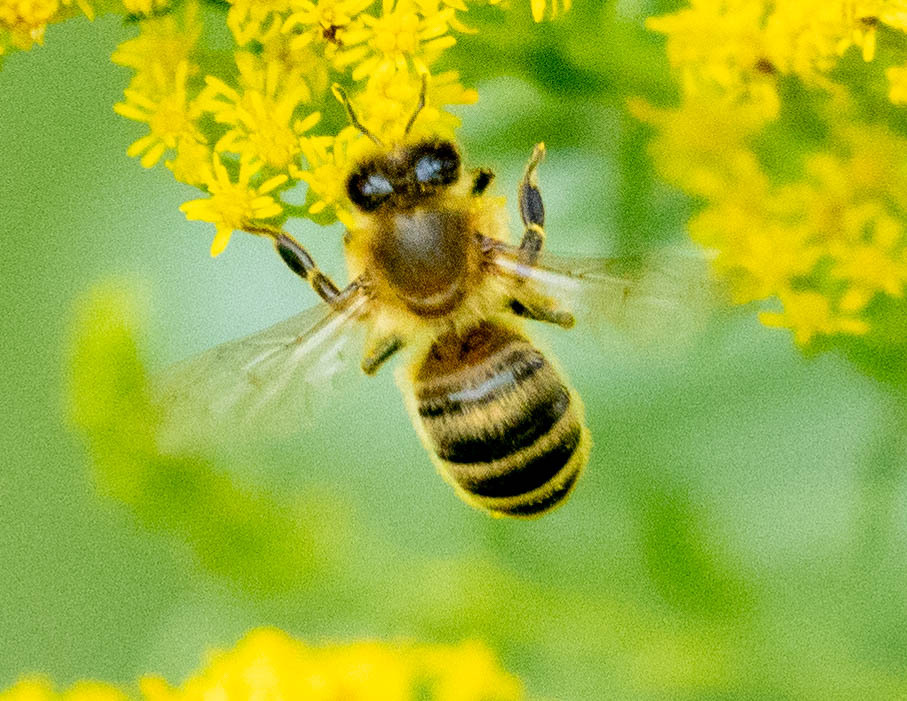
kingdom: Animalia
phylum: Arthropoda
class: Insecta
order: Hymenoptera
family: Apidae
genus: Apis
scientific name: Apis mellifera
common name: Honey bee
